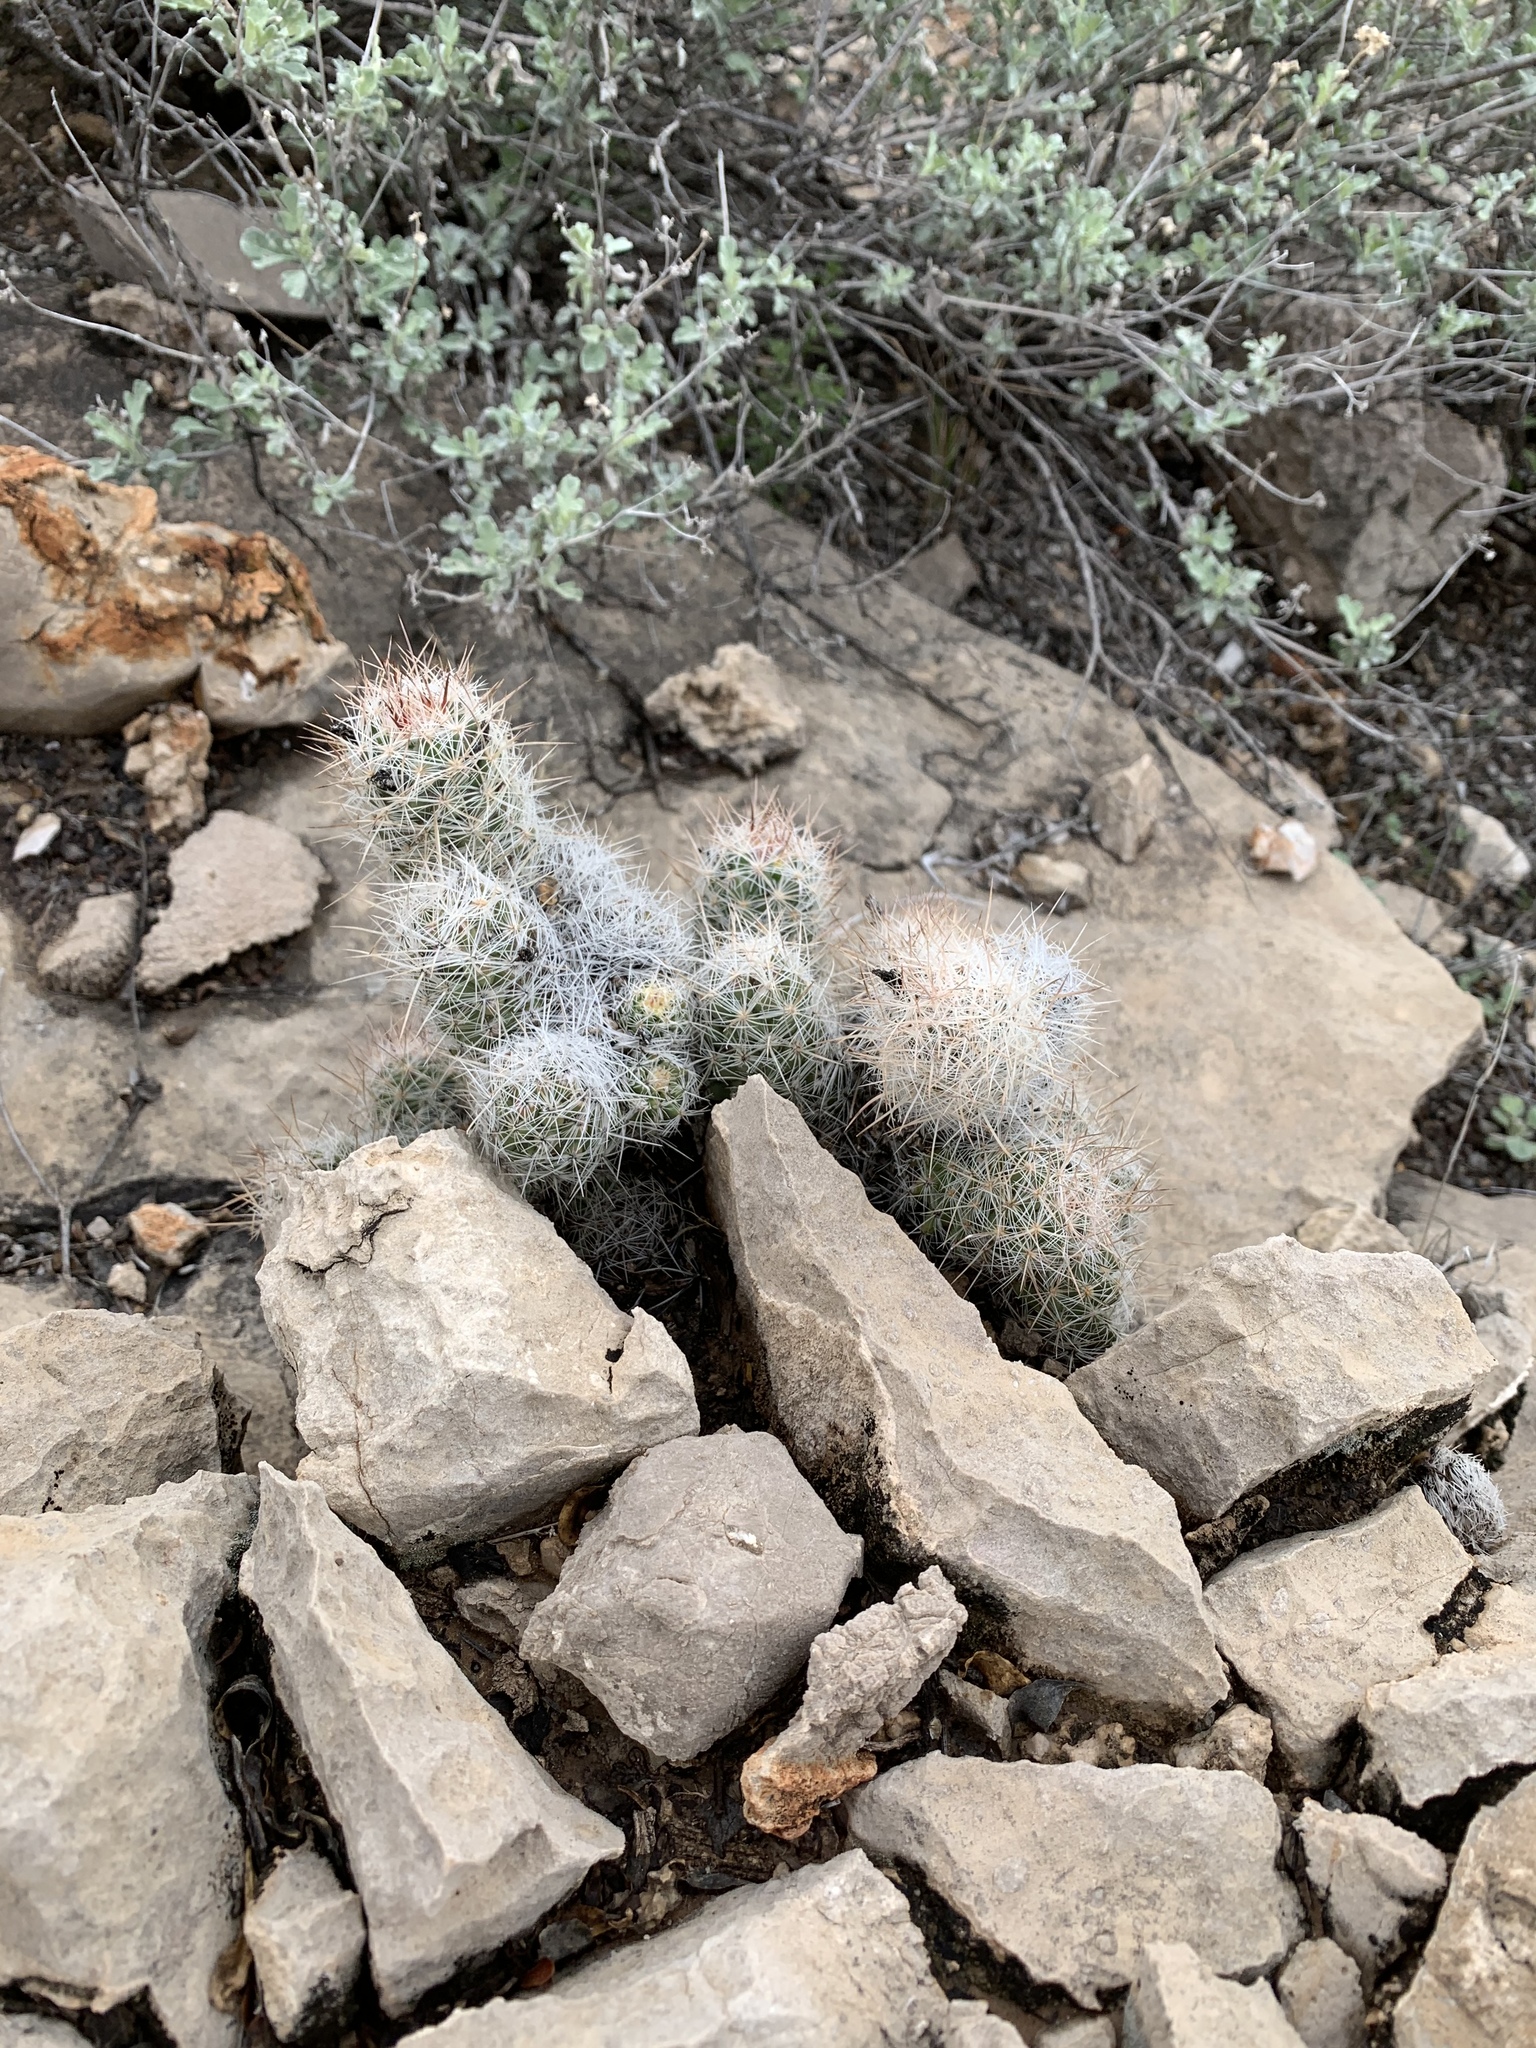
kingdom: Plantae
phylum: Tracheophyta
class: Magnoliopsida
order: Caryophyllales
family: Cactaceae
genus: Pelecyphora
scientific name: Pelecyphora tuberculosa
